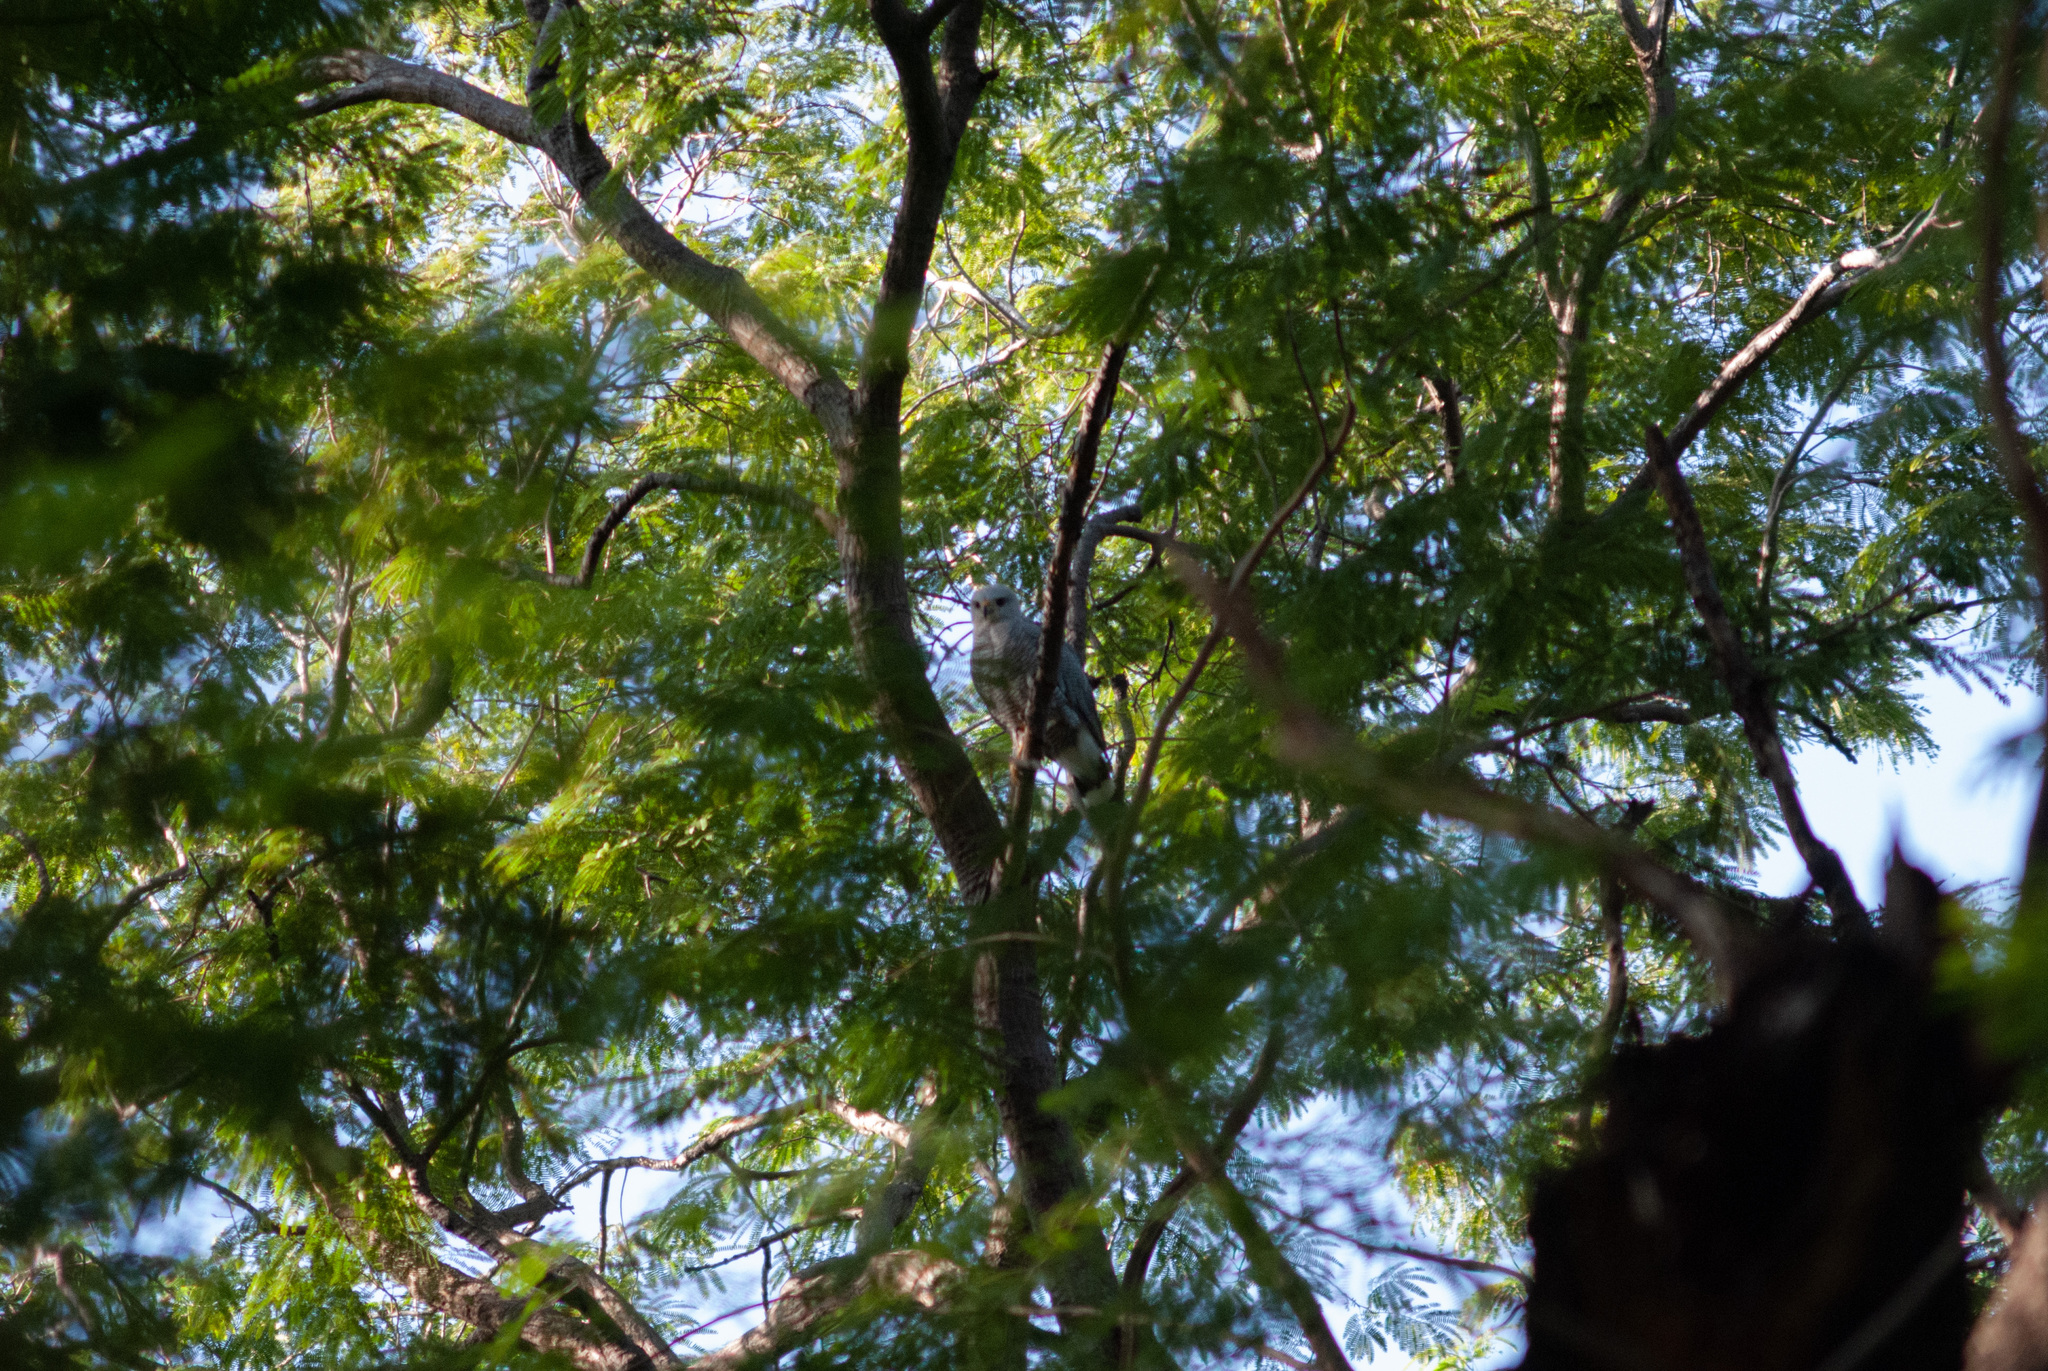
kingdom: Animalia
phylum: Chordata
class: Aves
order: Accipitriformes
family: Accipitridae
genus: Buteo
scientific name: Buteo nitidus
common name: Grey-lined hawk
